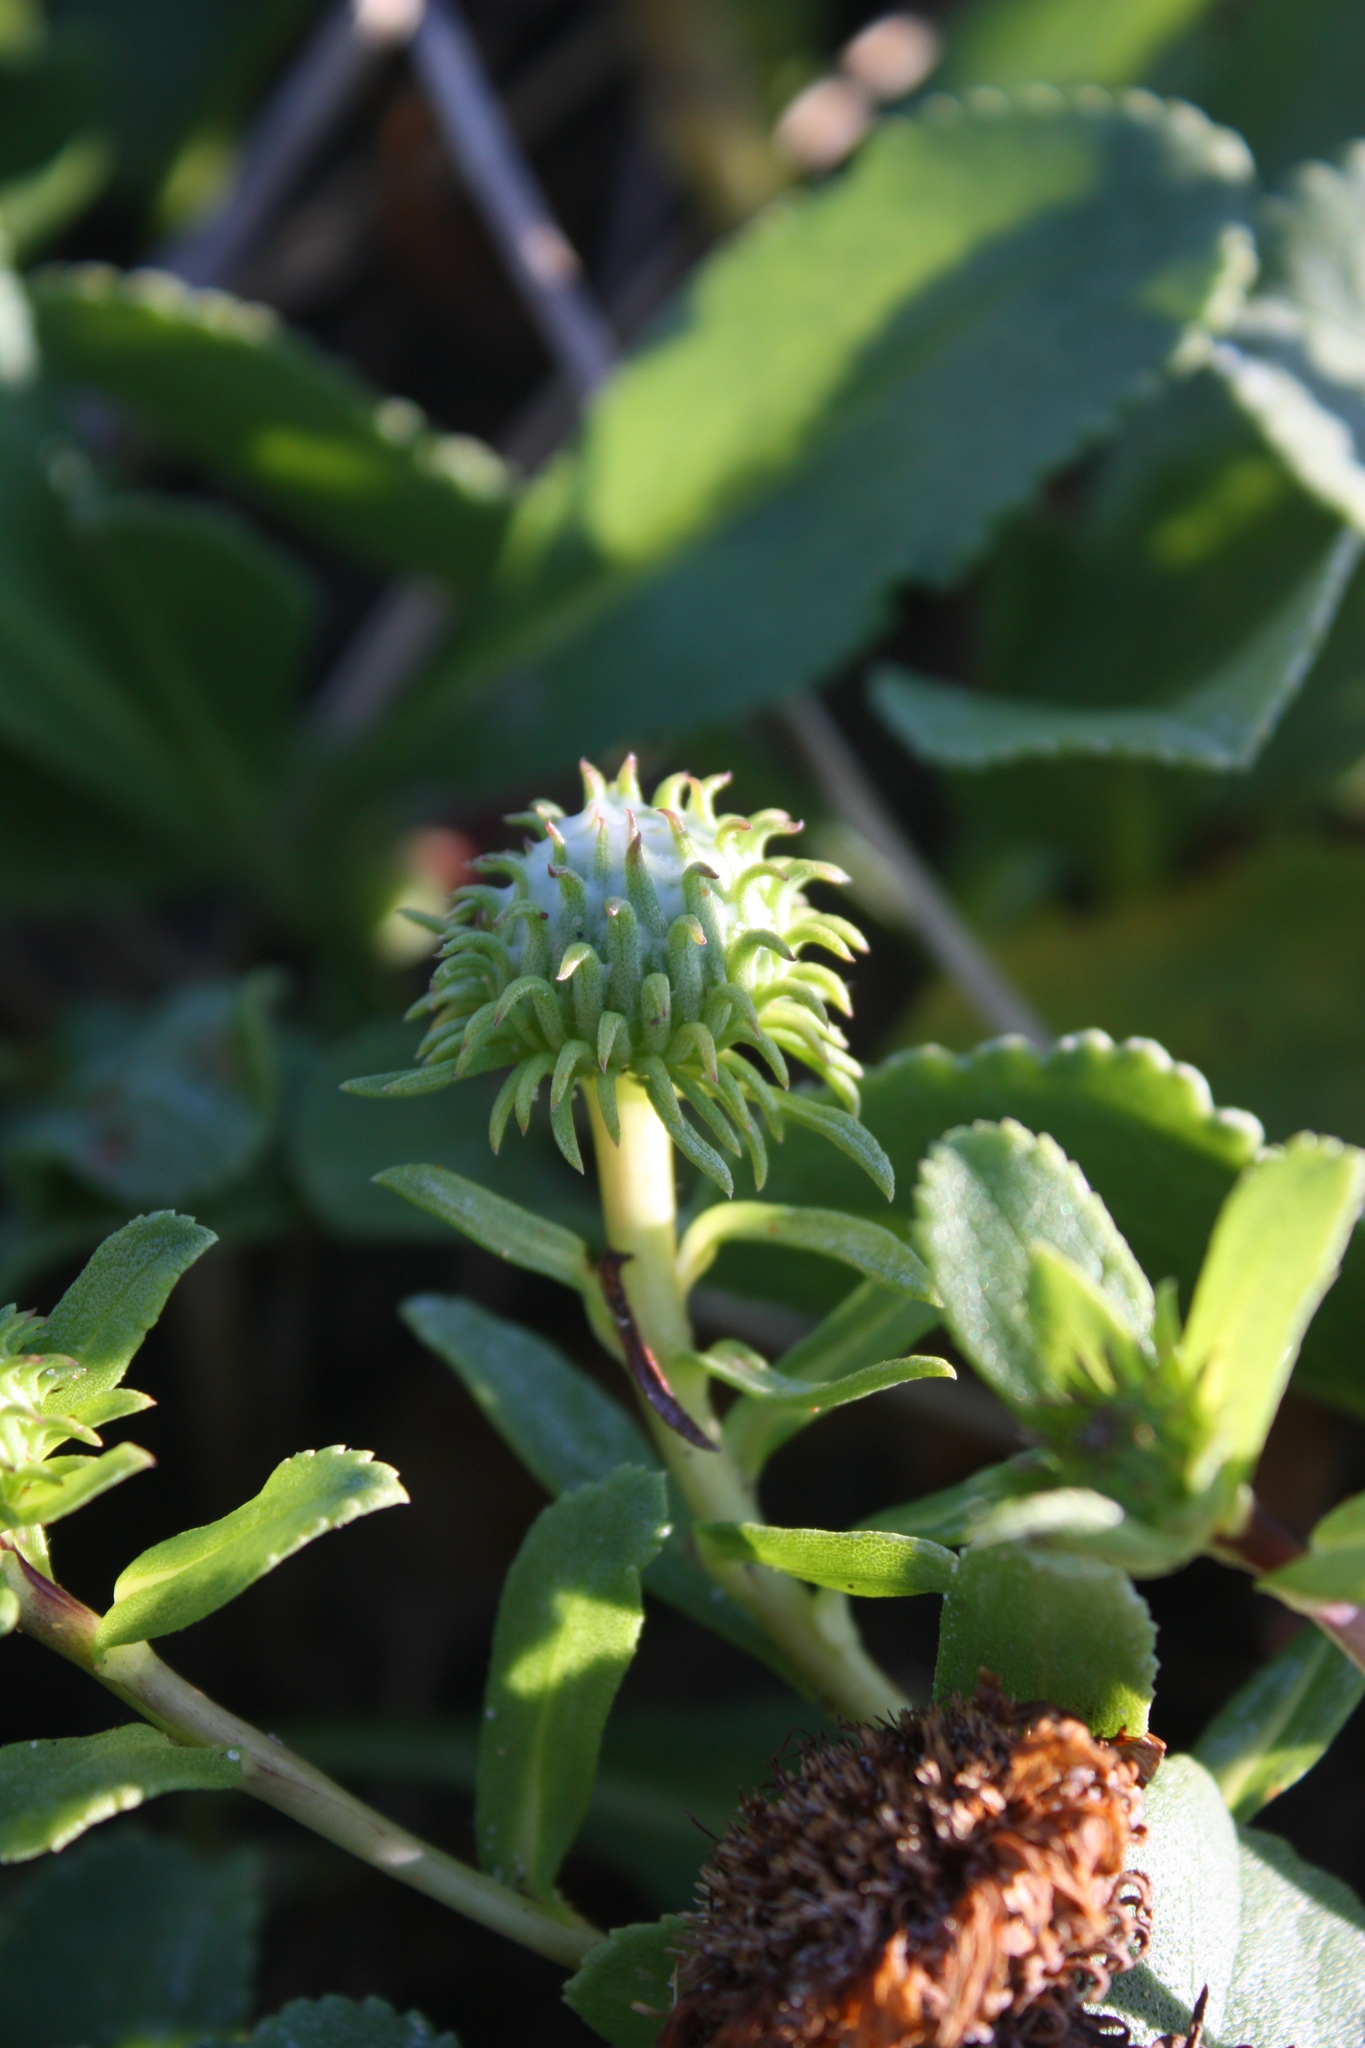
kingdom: Plantae
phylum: Tracheophyta
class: Magnoliopsida
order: Asterales
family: Asteraceae
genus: Grindelia
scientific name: Grindelia hirsutula
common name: Hairy gumweed
